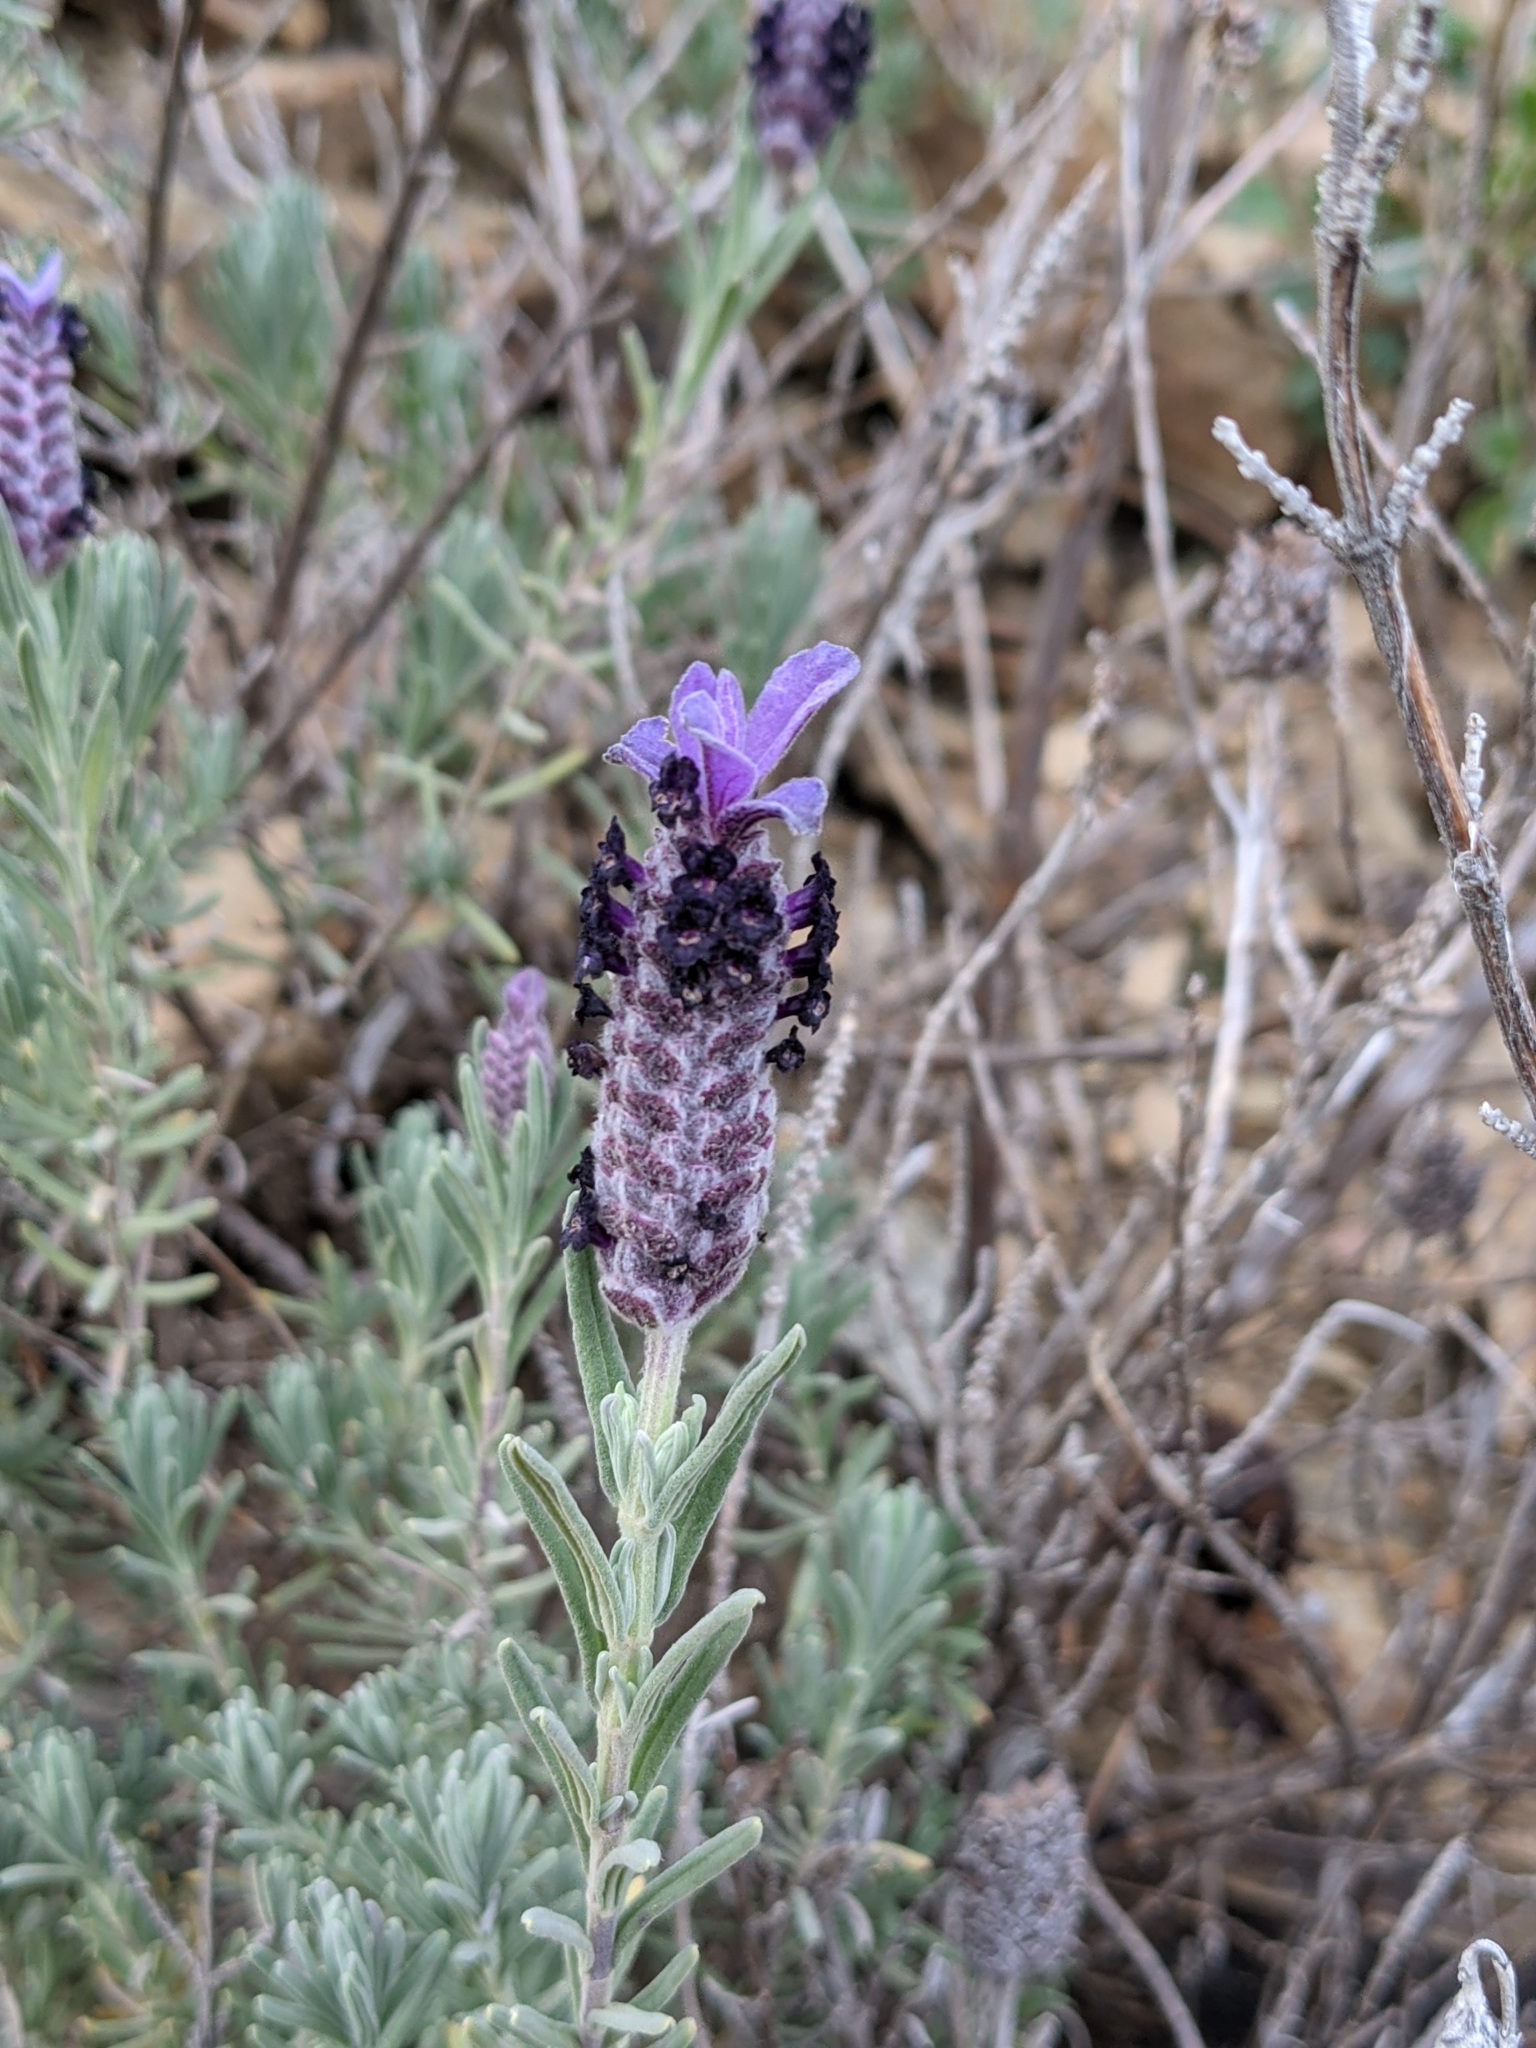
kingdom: Plantae
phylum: Tracheophyta
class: Magnoliopsida
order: Lamiales
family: Lamiaceae
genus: Lavandula
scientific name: Lavandula stoechas
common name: French lavender
